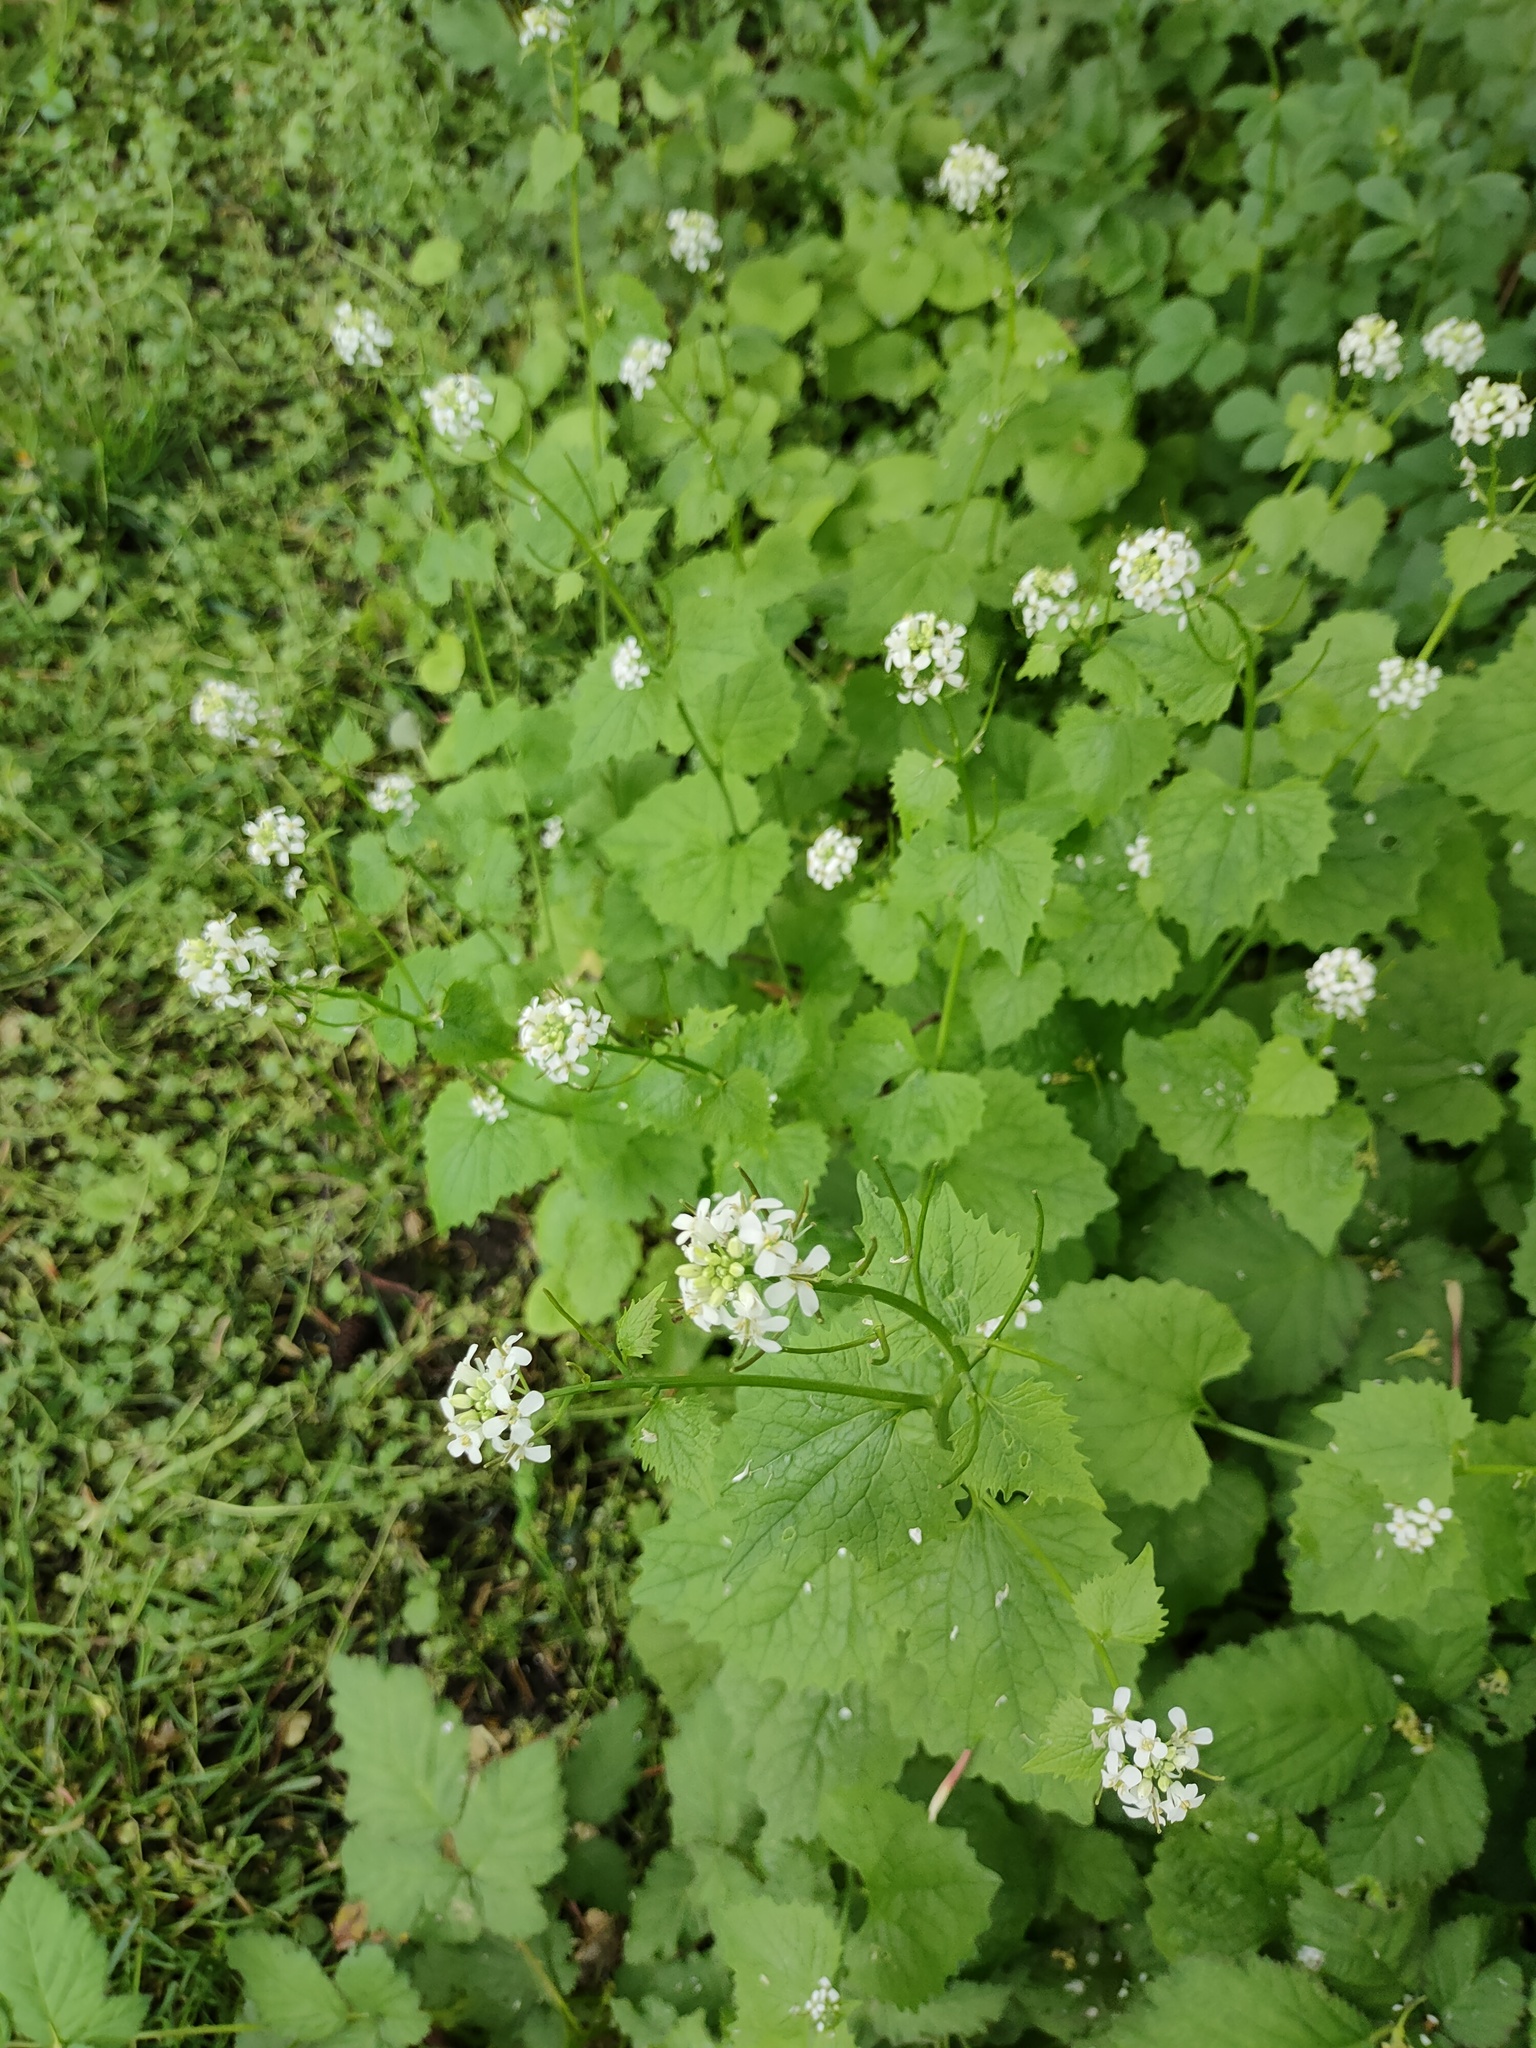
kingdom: Plantae
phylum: Tracheophyta
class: Magnoliopsida
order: Brassicales
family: Brassicaceae
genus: Alliaria
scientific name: Alliaria petiolata
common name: Garlic mustard
